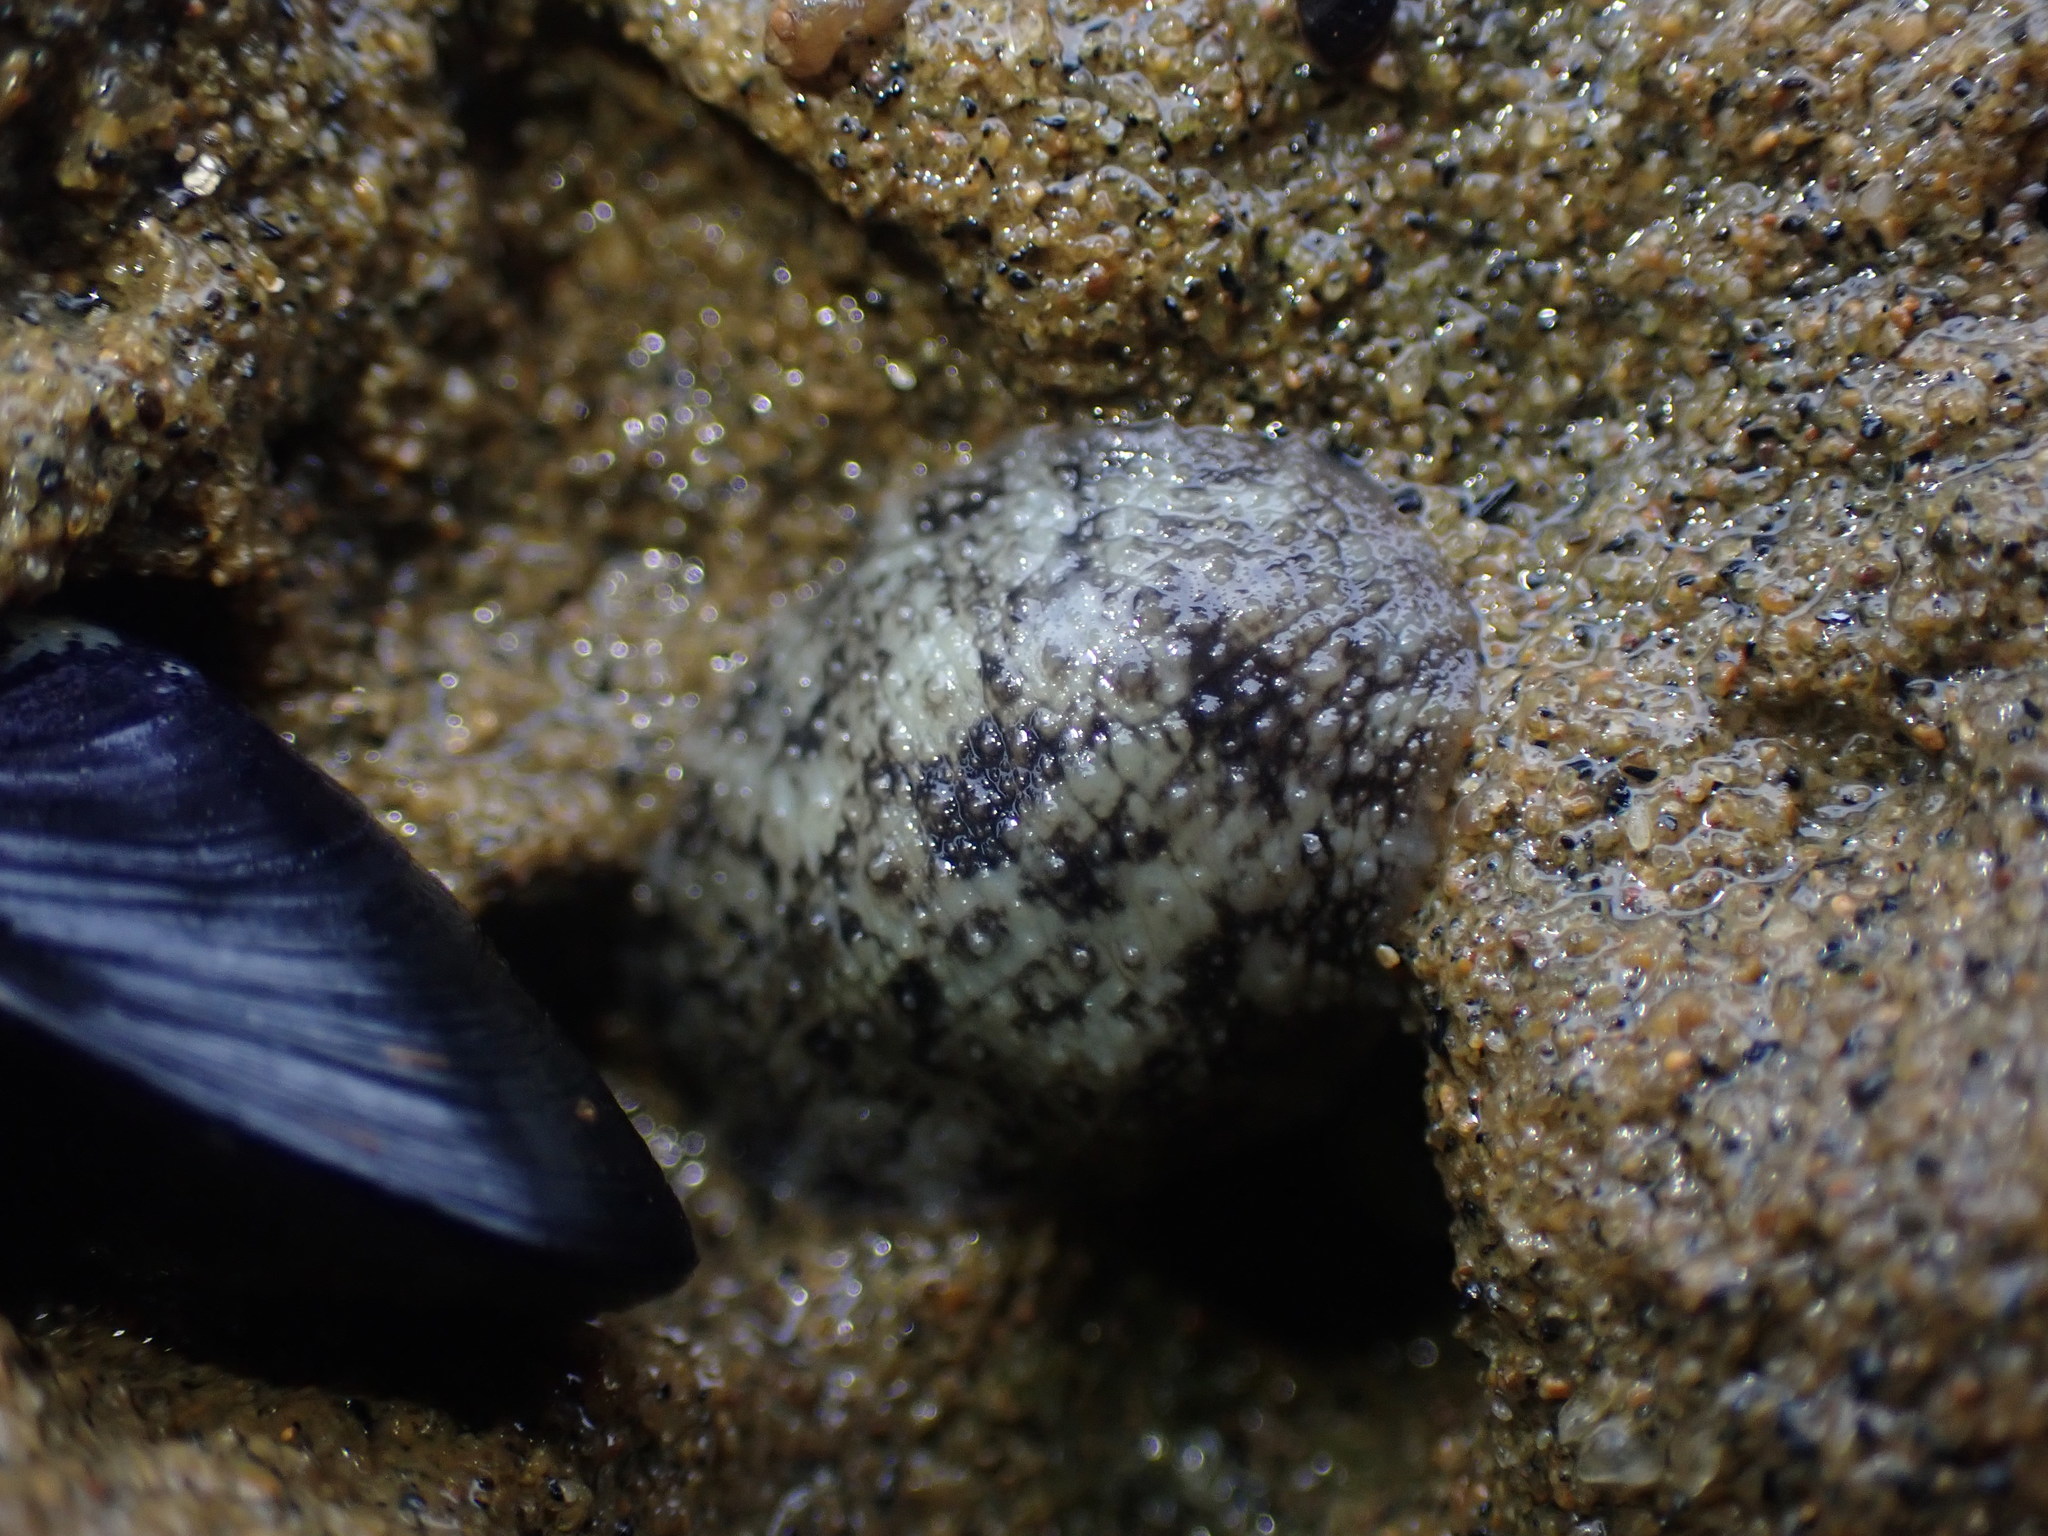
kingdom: Animalia
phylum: Mollusca
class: Gastropoda
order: Systellommatophora
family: Onchidiidae
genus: Onchidella
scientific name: Onchidella nigricans
